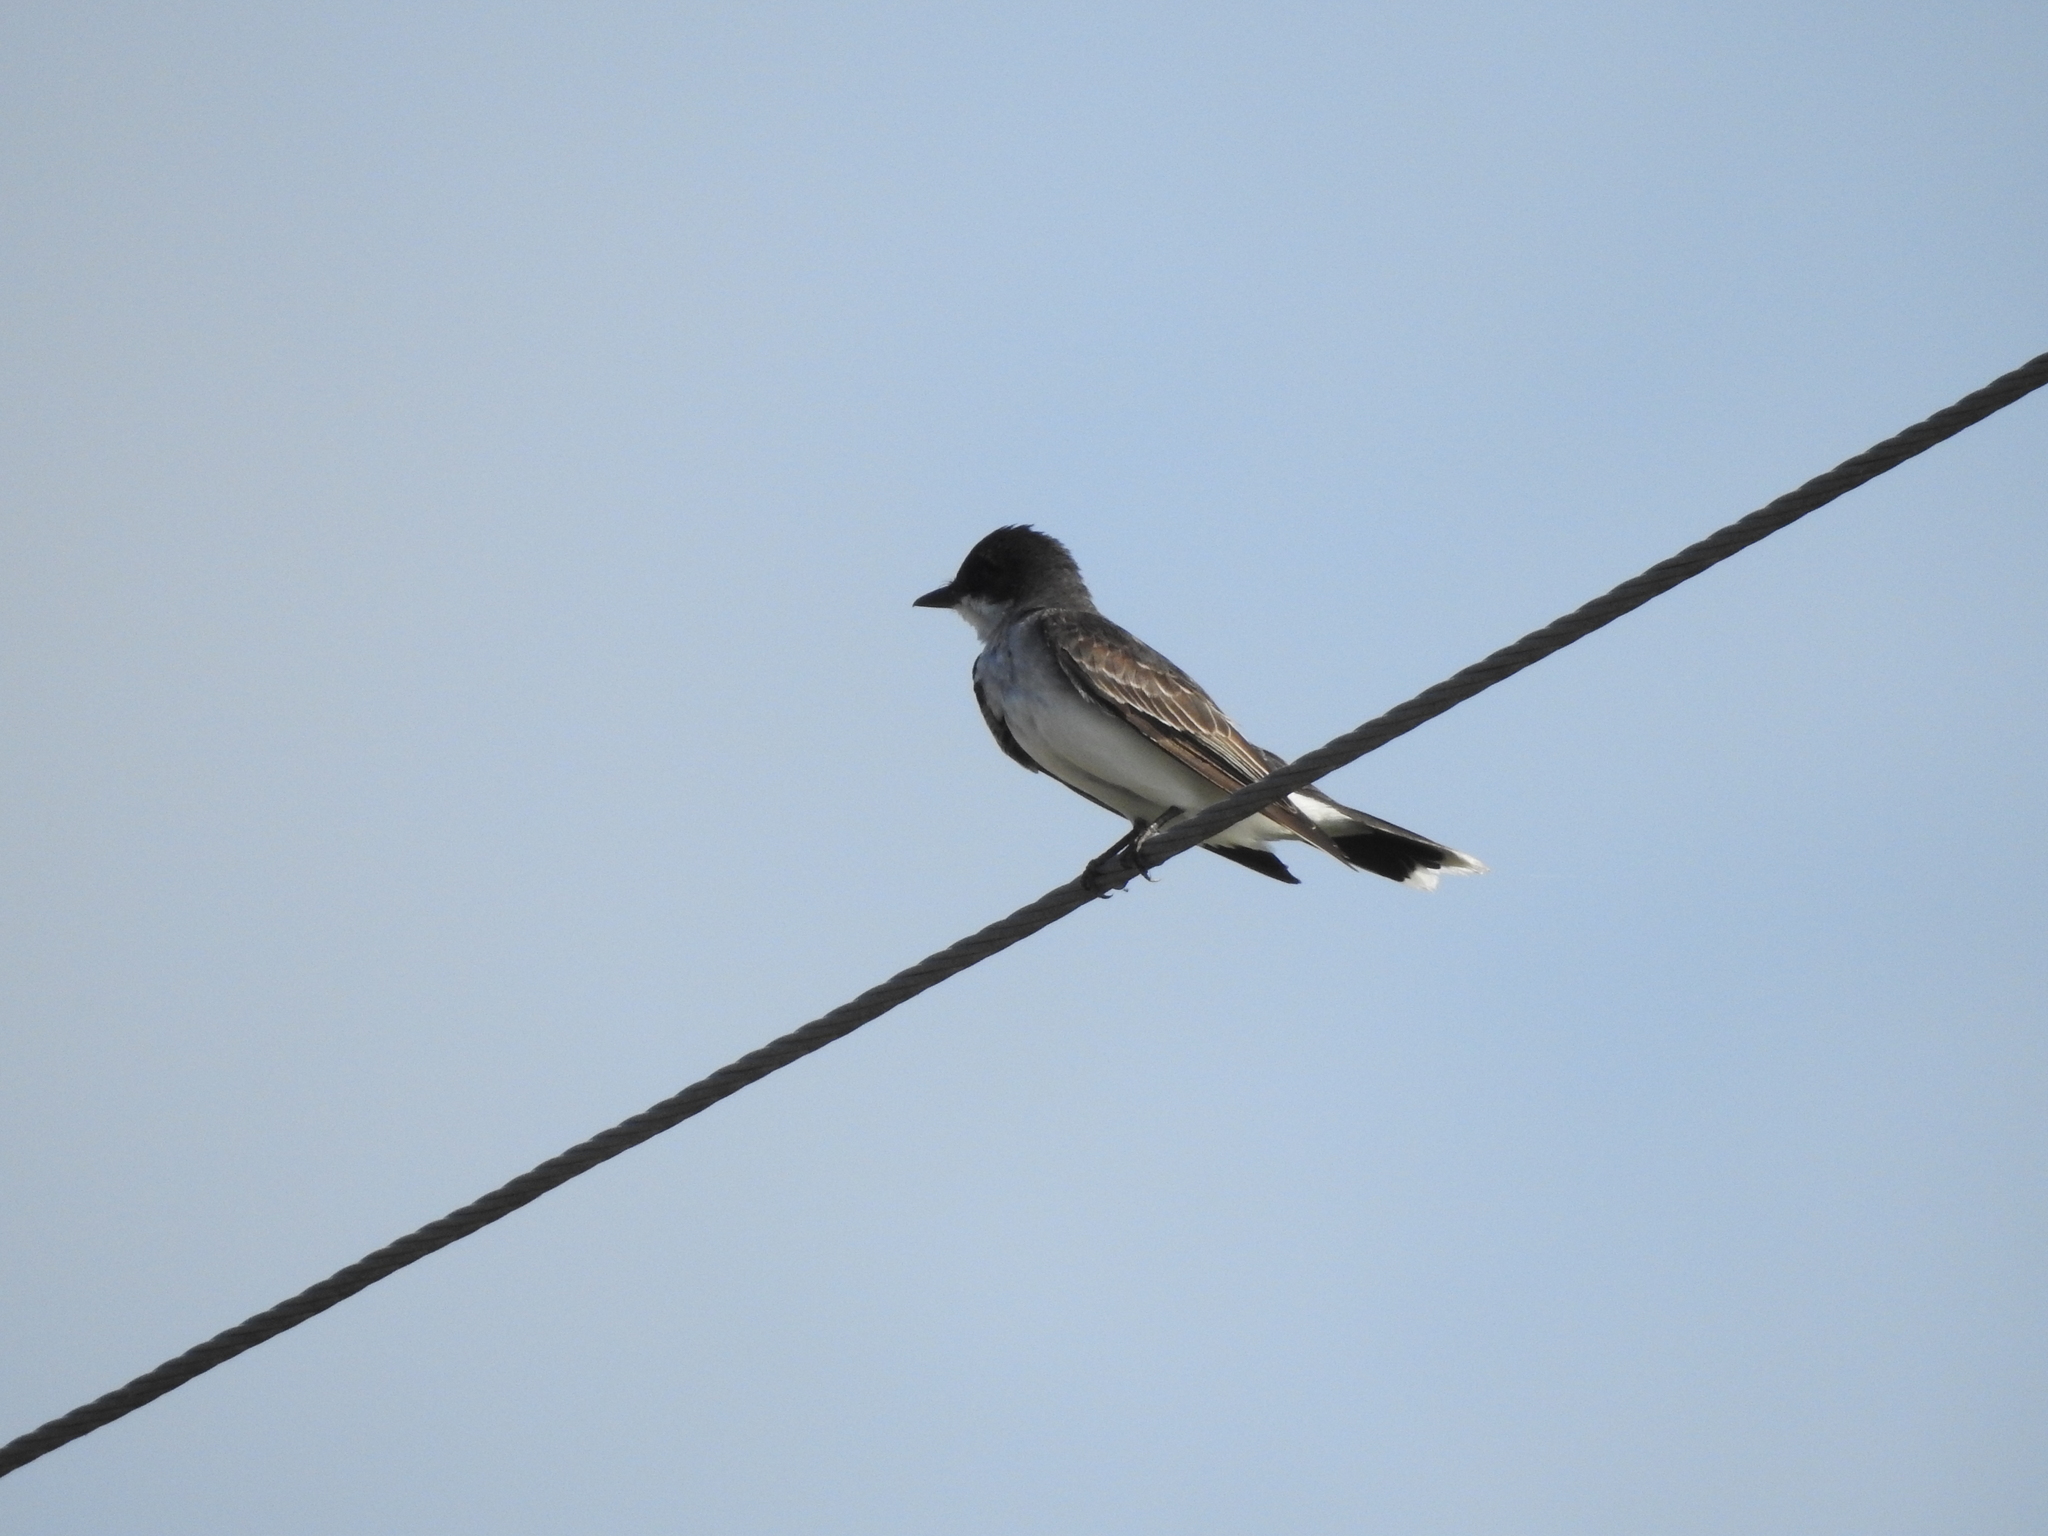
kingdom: Animalia
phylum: Chordata
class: Aves
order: Passeriformes
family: Tyrannidae
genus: Tyrannus
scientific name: Tyrannus tyrannus
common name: Eastern kingbird
